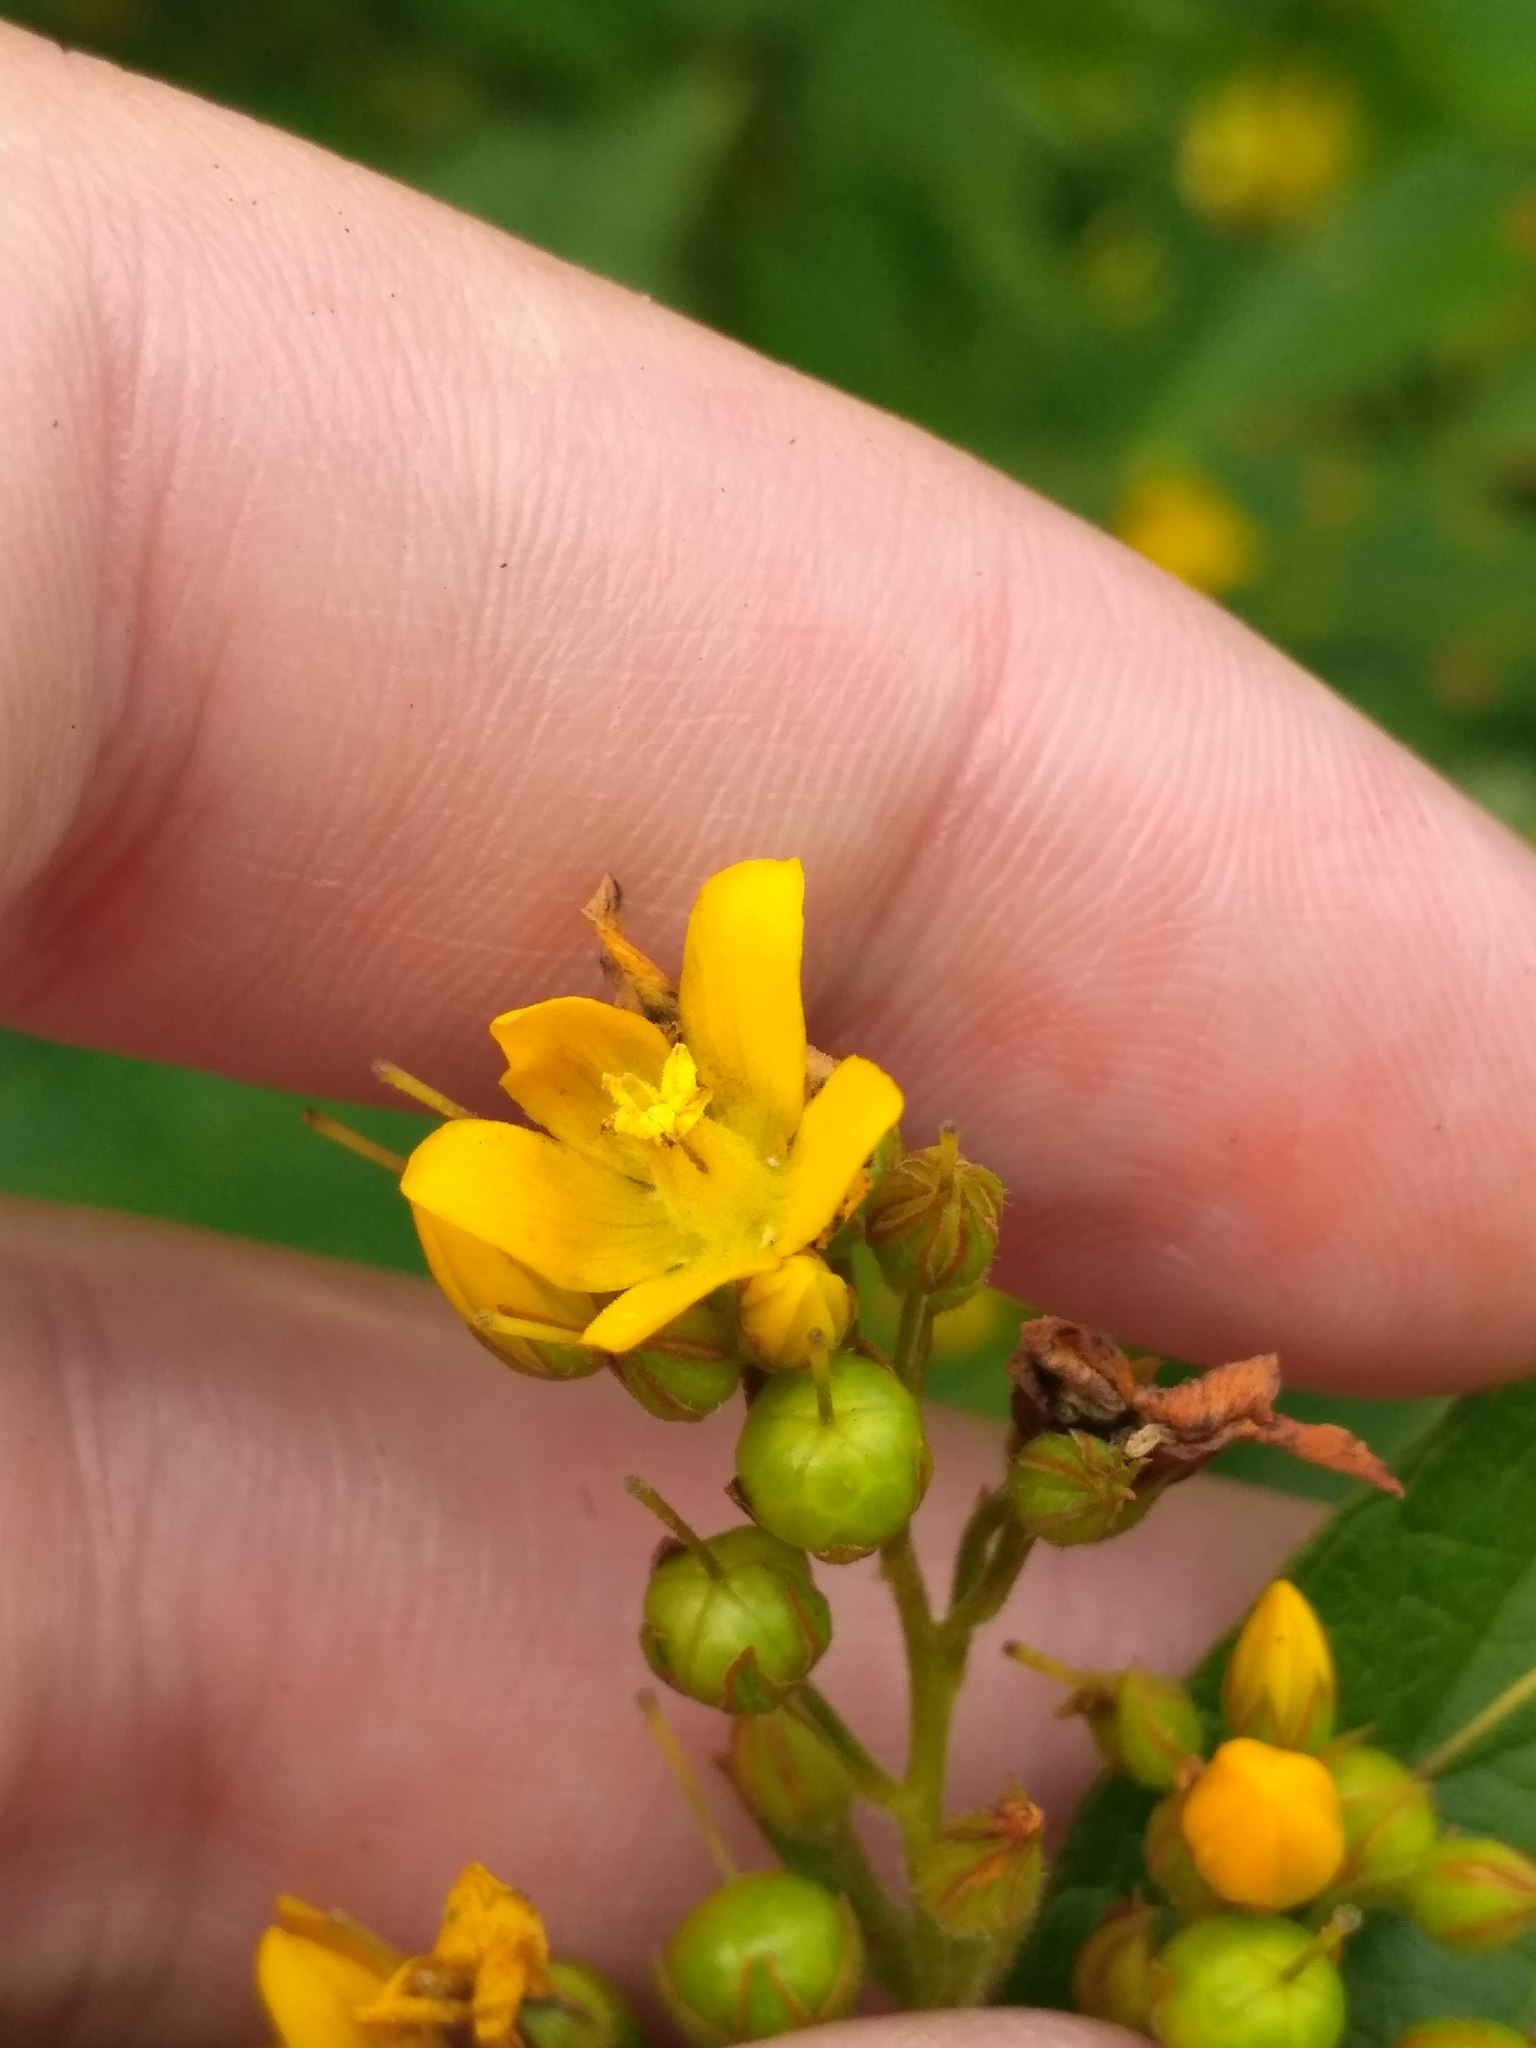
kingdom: Plantae
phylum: Tracheophyta
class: Magnoliopsida
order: Ericales
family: Primulaceae
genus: Lysimachia
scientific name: Lysimachia vulgaris
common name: Yellow loosestrife
